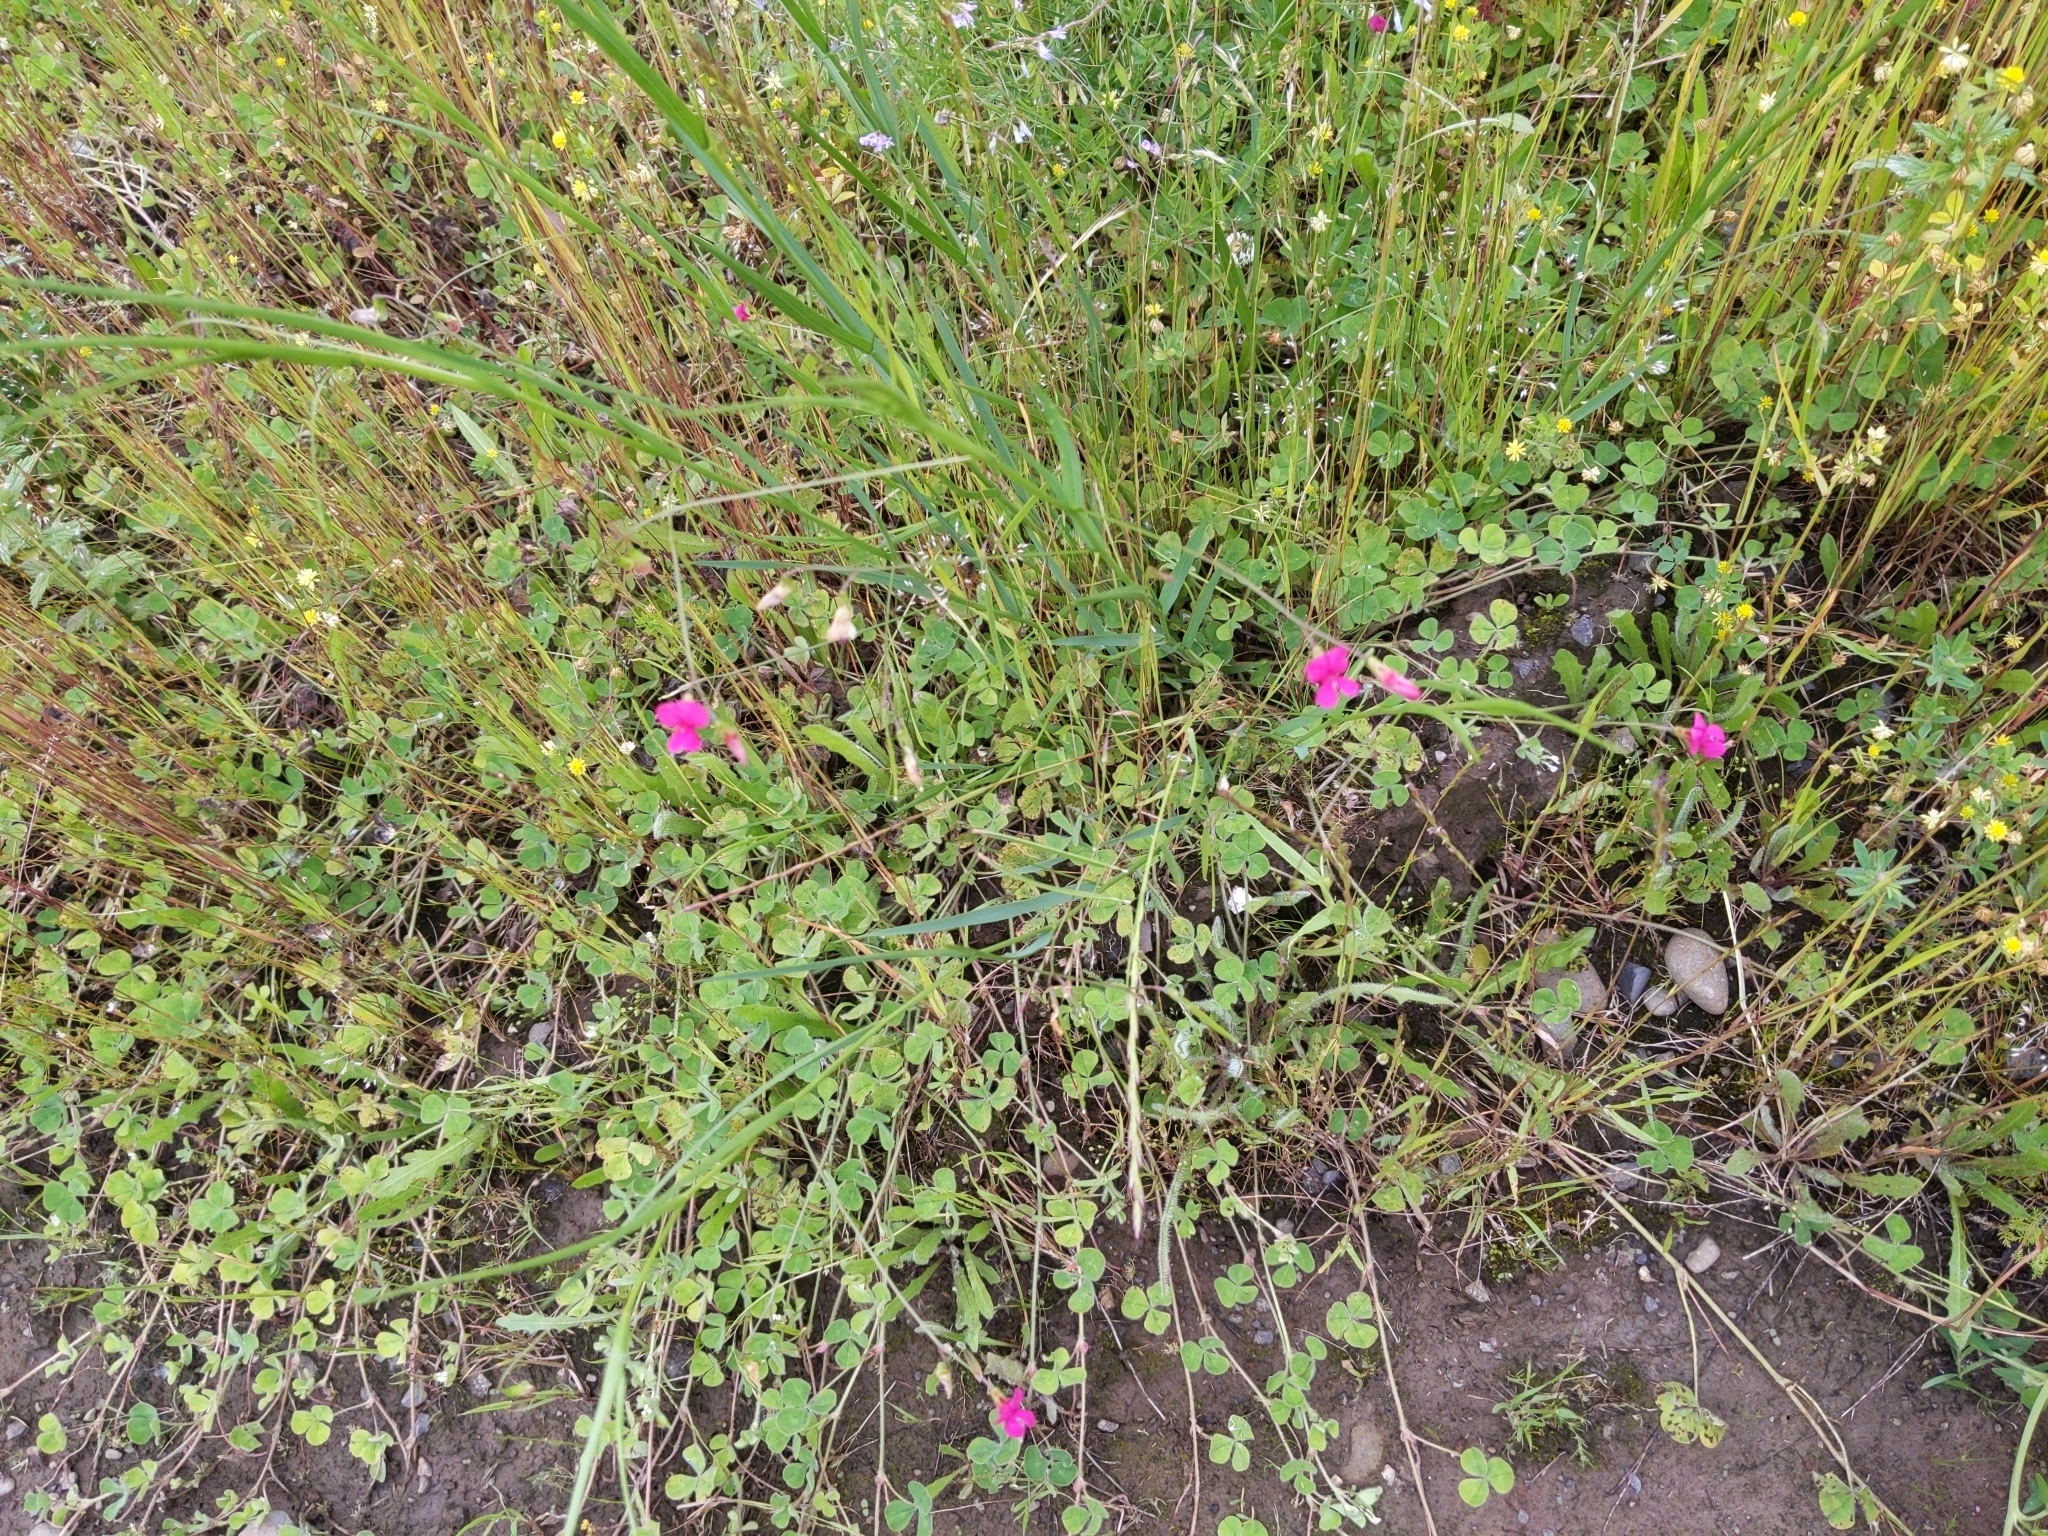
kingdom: Plantae
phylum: Tracheophyta
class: Magnoliopsida
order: Fabales
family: Fabaceae
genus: Lathyrus
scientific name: Lathyrus nissolia
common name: Grass vetchling
